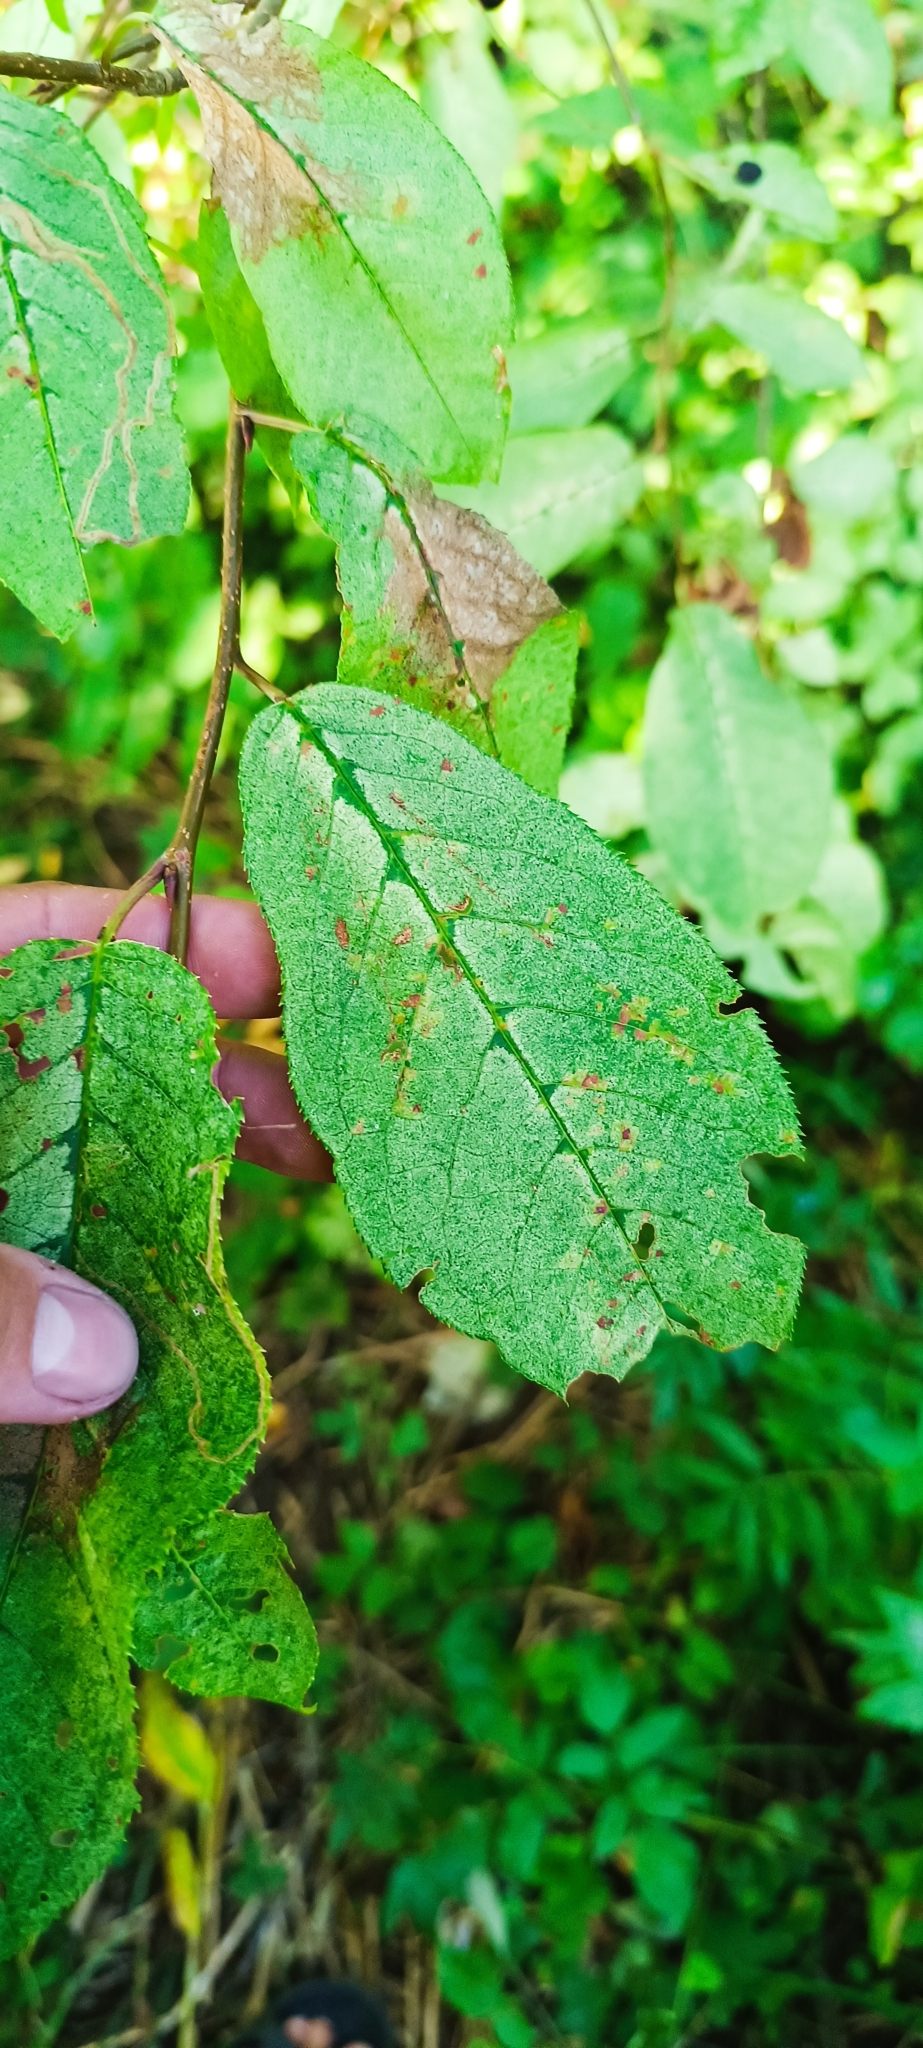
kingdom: Plantae
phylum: Tracheophyta
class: Magnoliopsida
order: Rosales
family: Rosaceae
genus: Prunus
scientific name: Prunus padus
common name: Bird cherry
